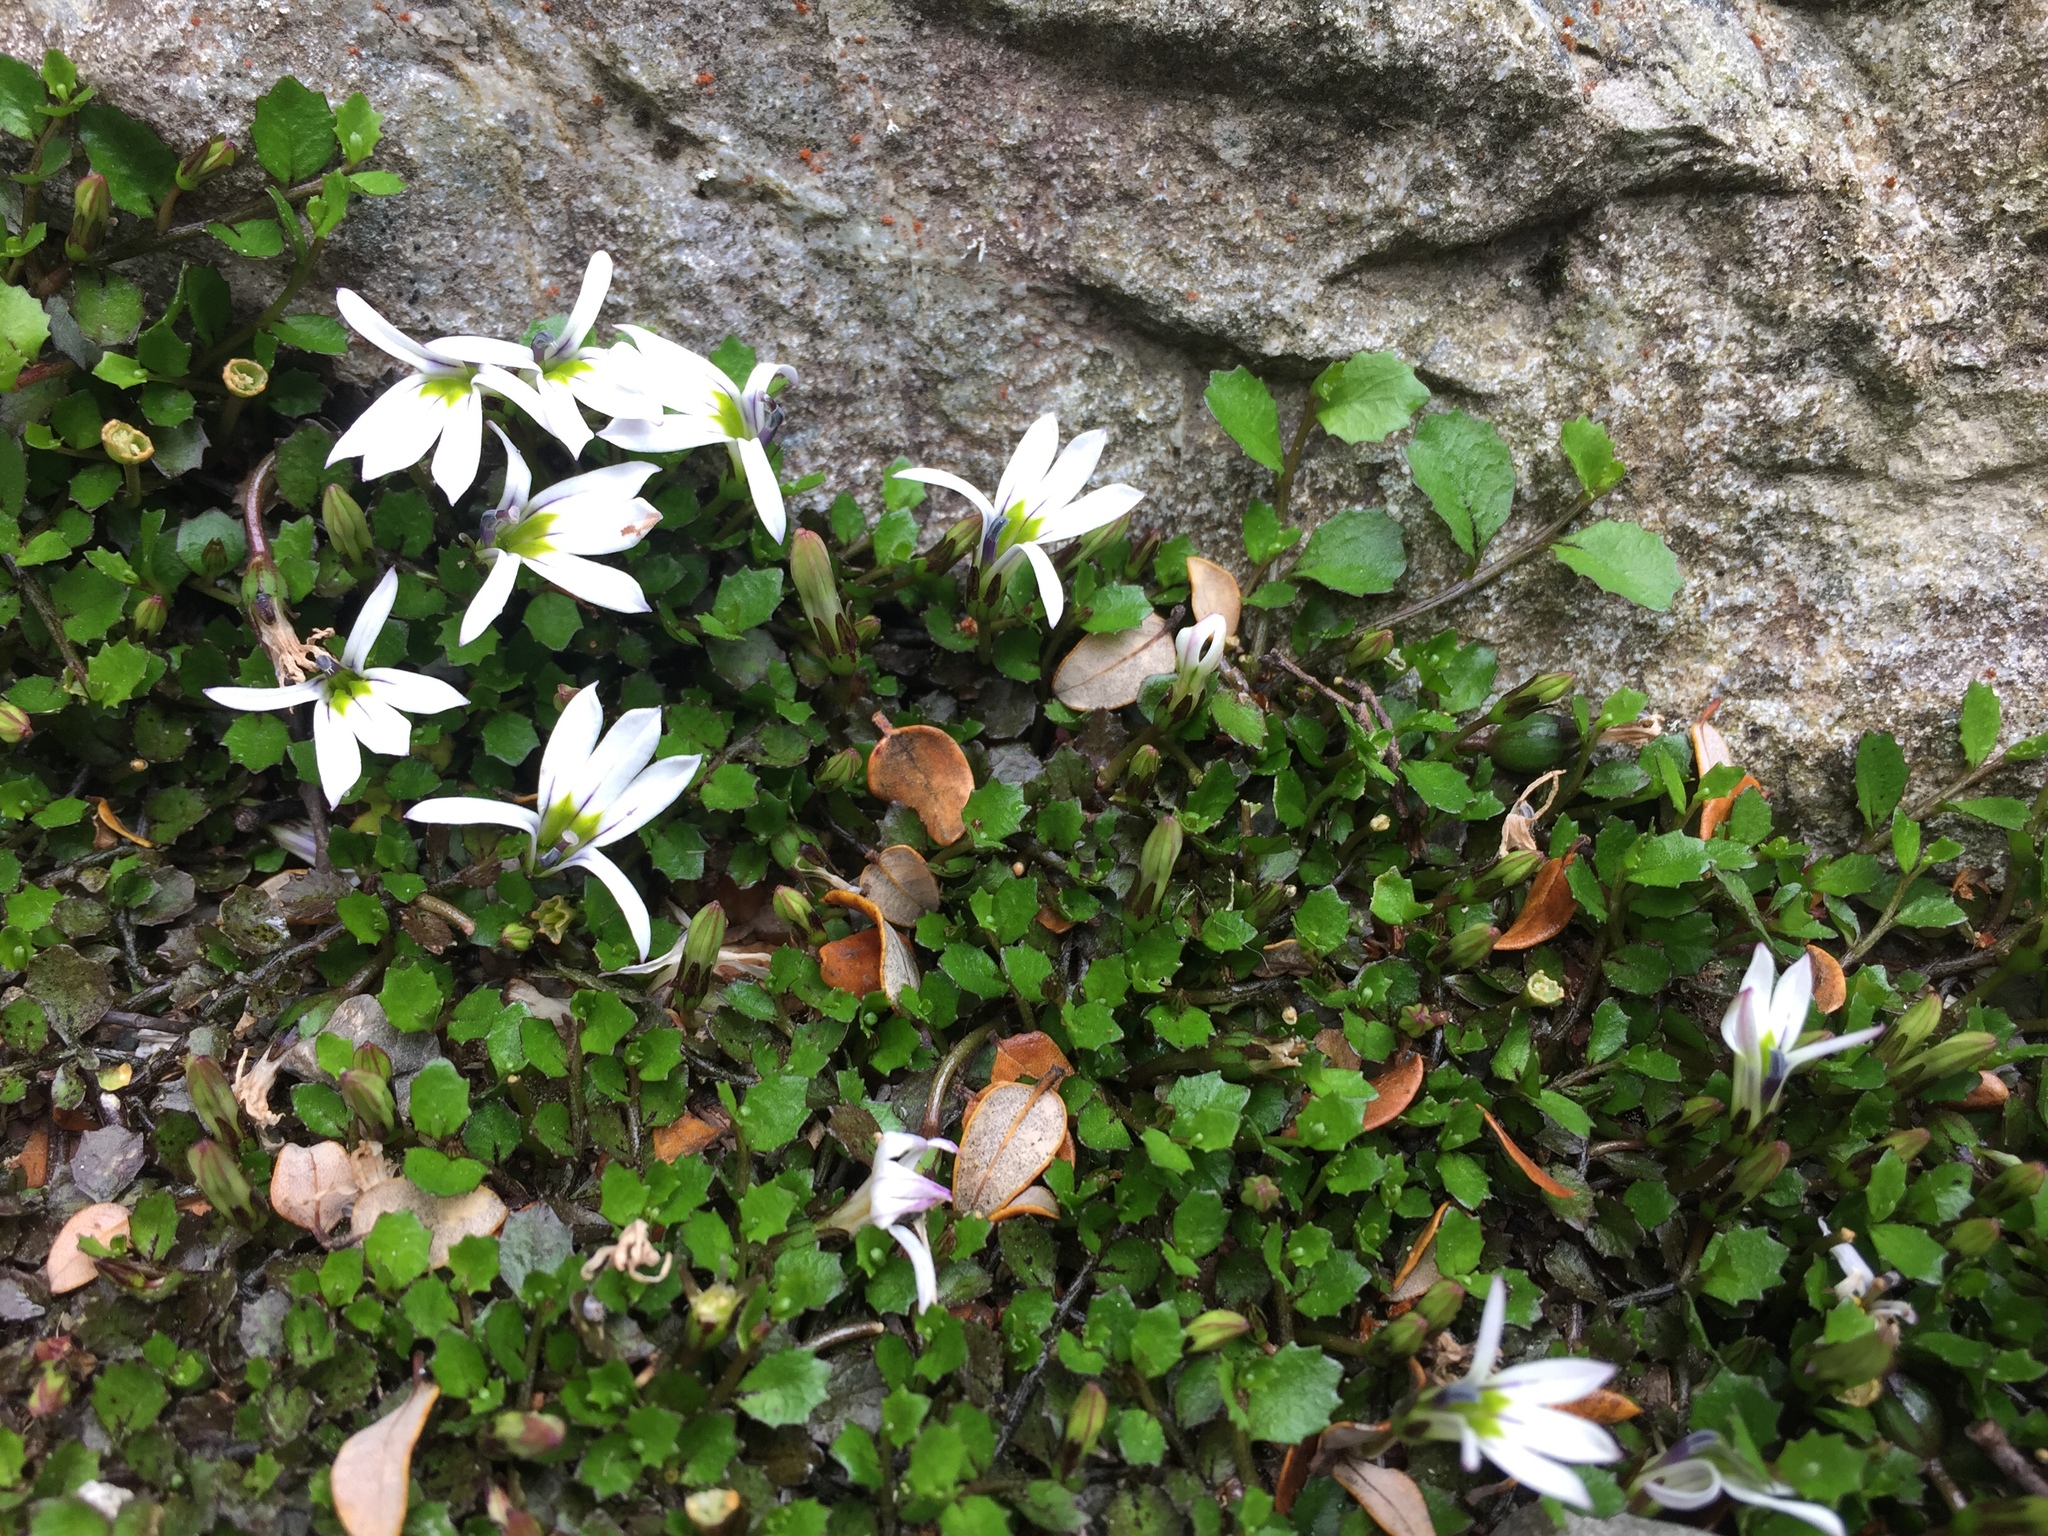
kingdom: Plantae
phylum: Tracheophyta
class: Magnoliopsida
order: Asterales
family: Campanulaceae
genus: Lobelia
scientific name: Lobelia angulata
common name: Lawn lobelia
